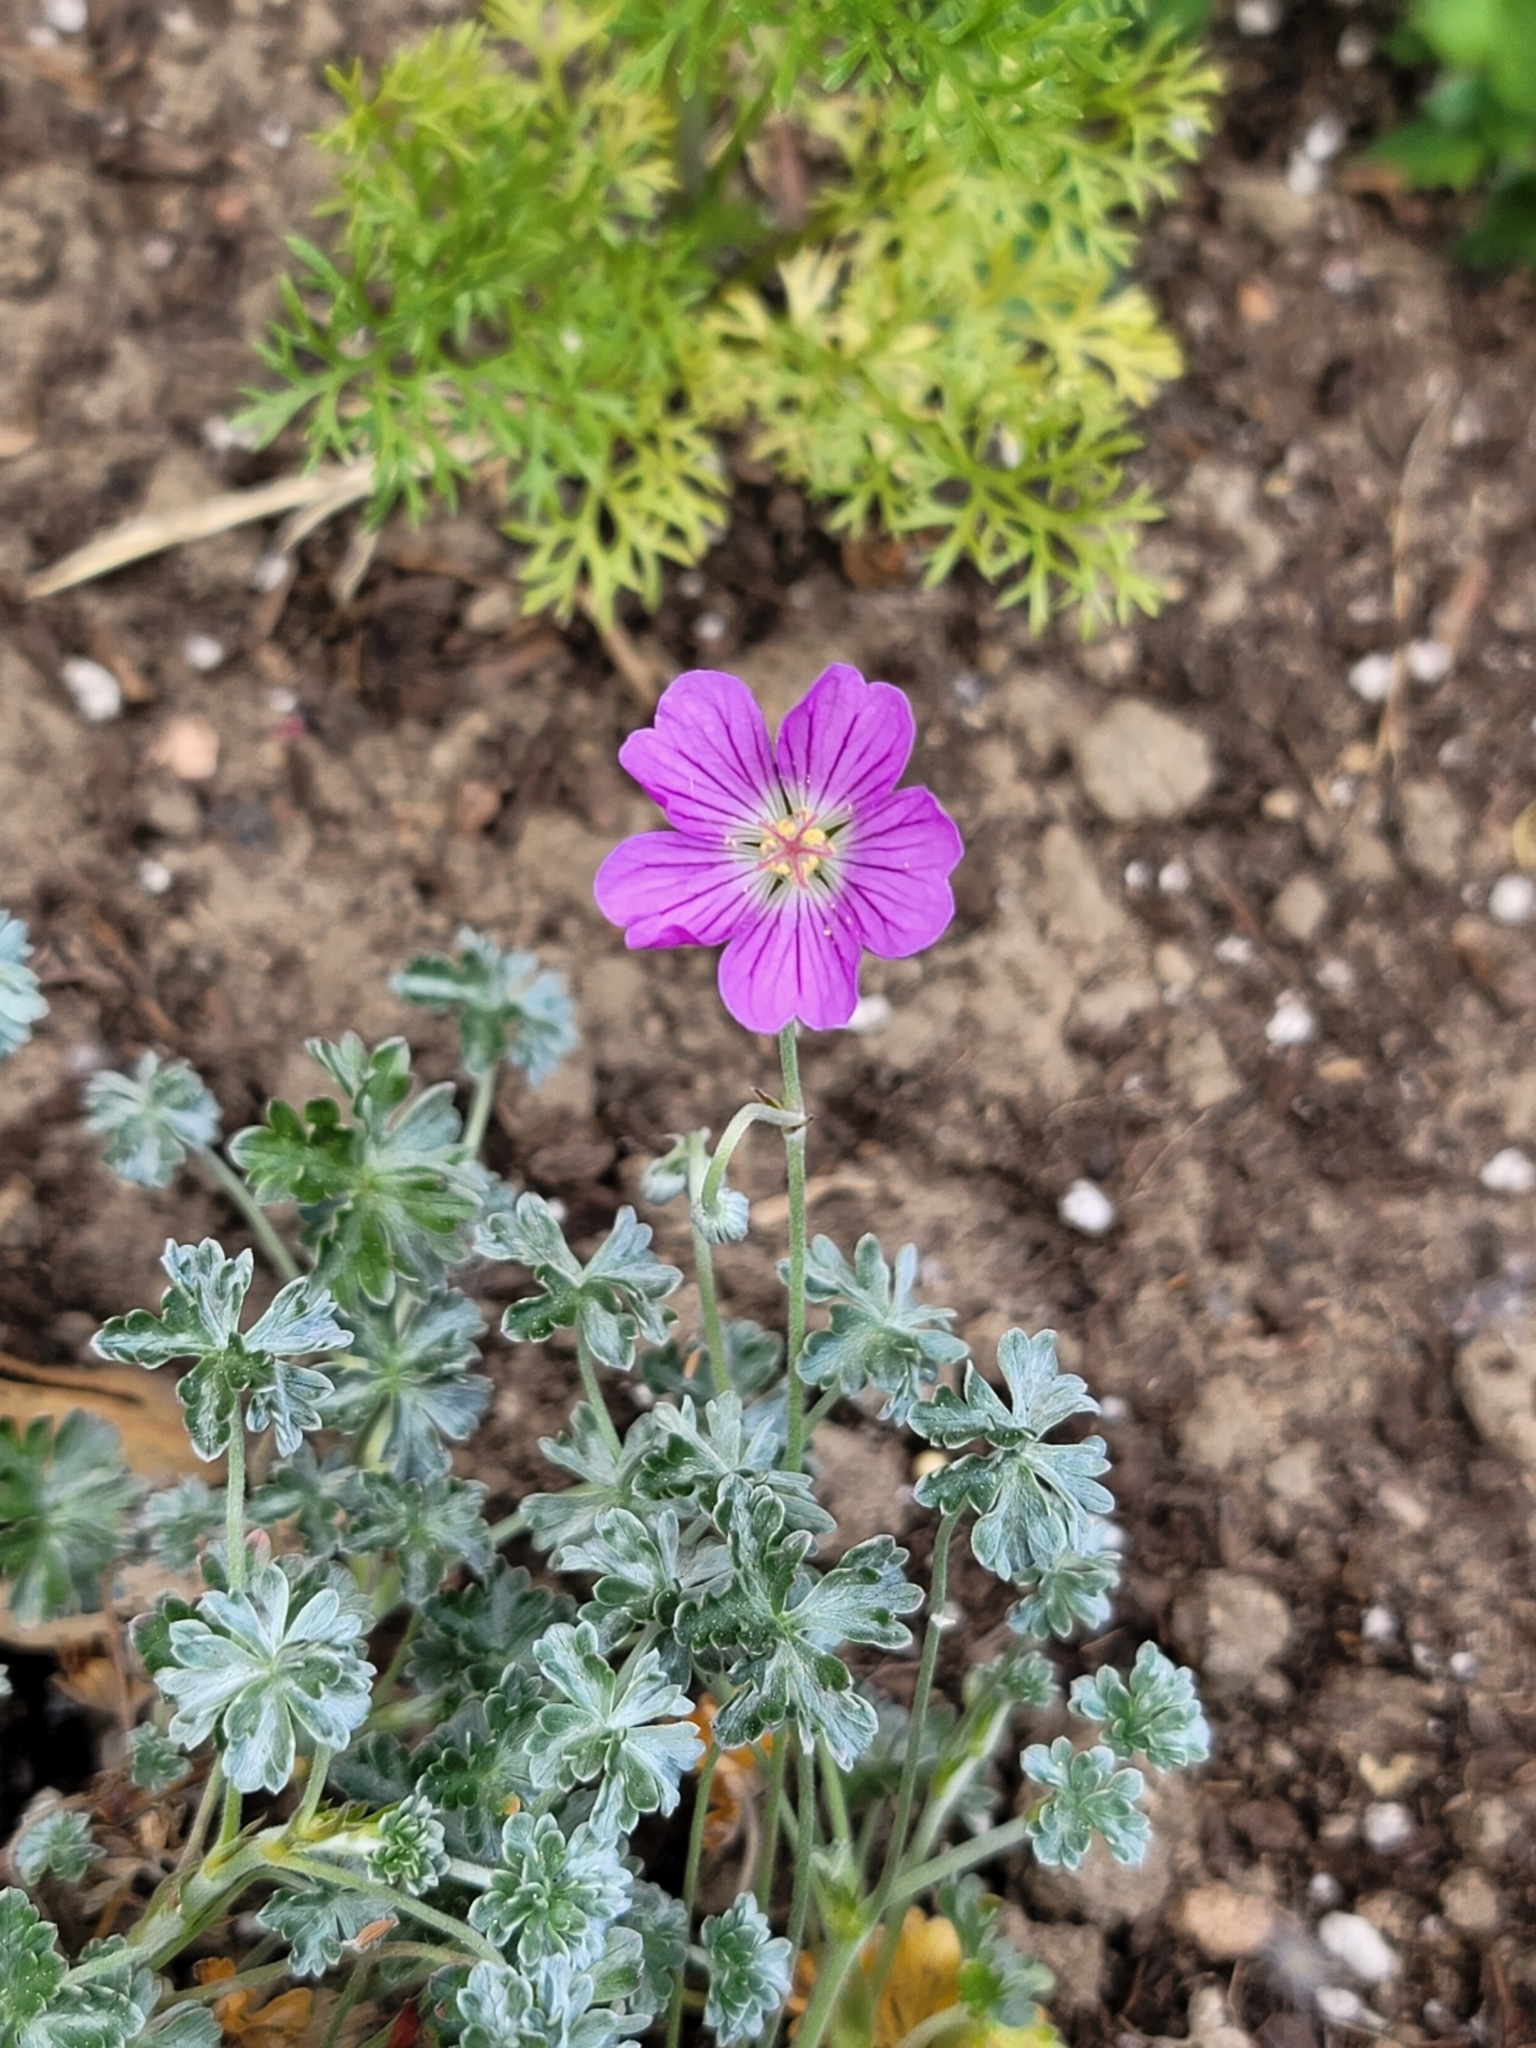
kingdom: Plantae
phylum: Tracheophyta
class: Magnoliopsida
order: Geraniales
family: Geraniaceae
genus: Geranium
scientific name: Geranium incanum
